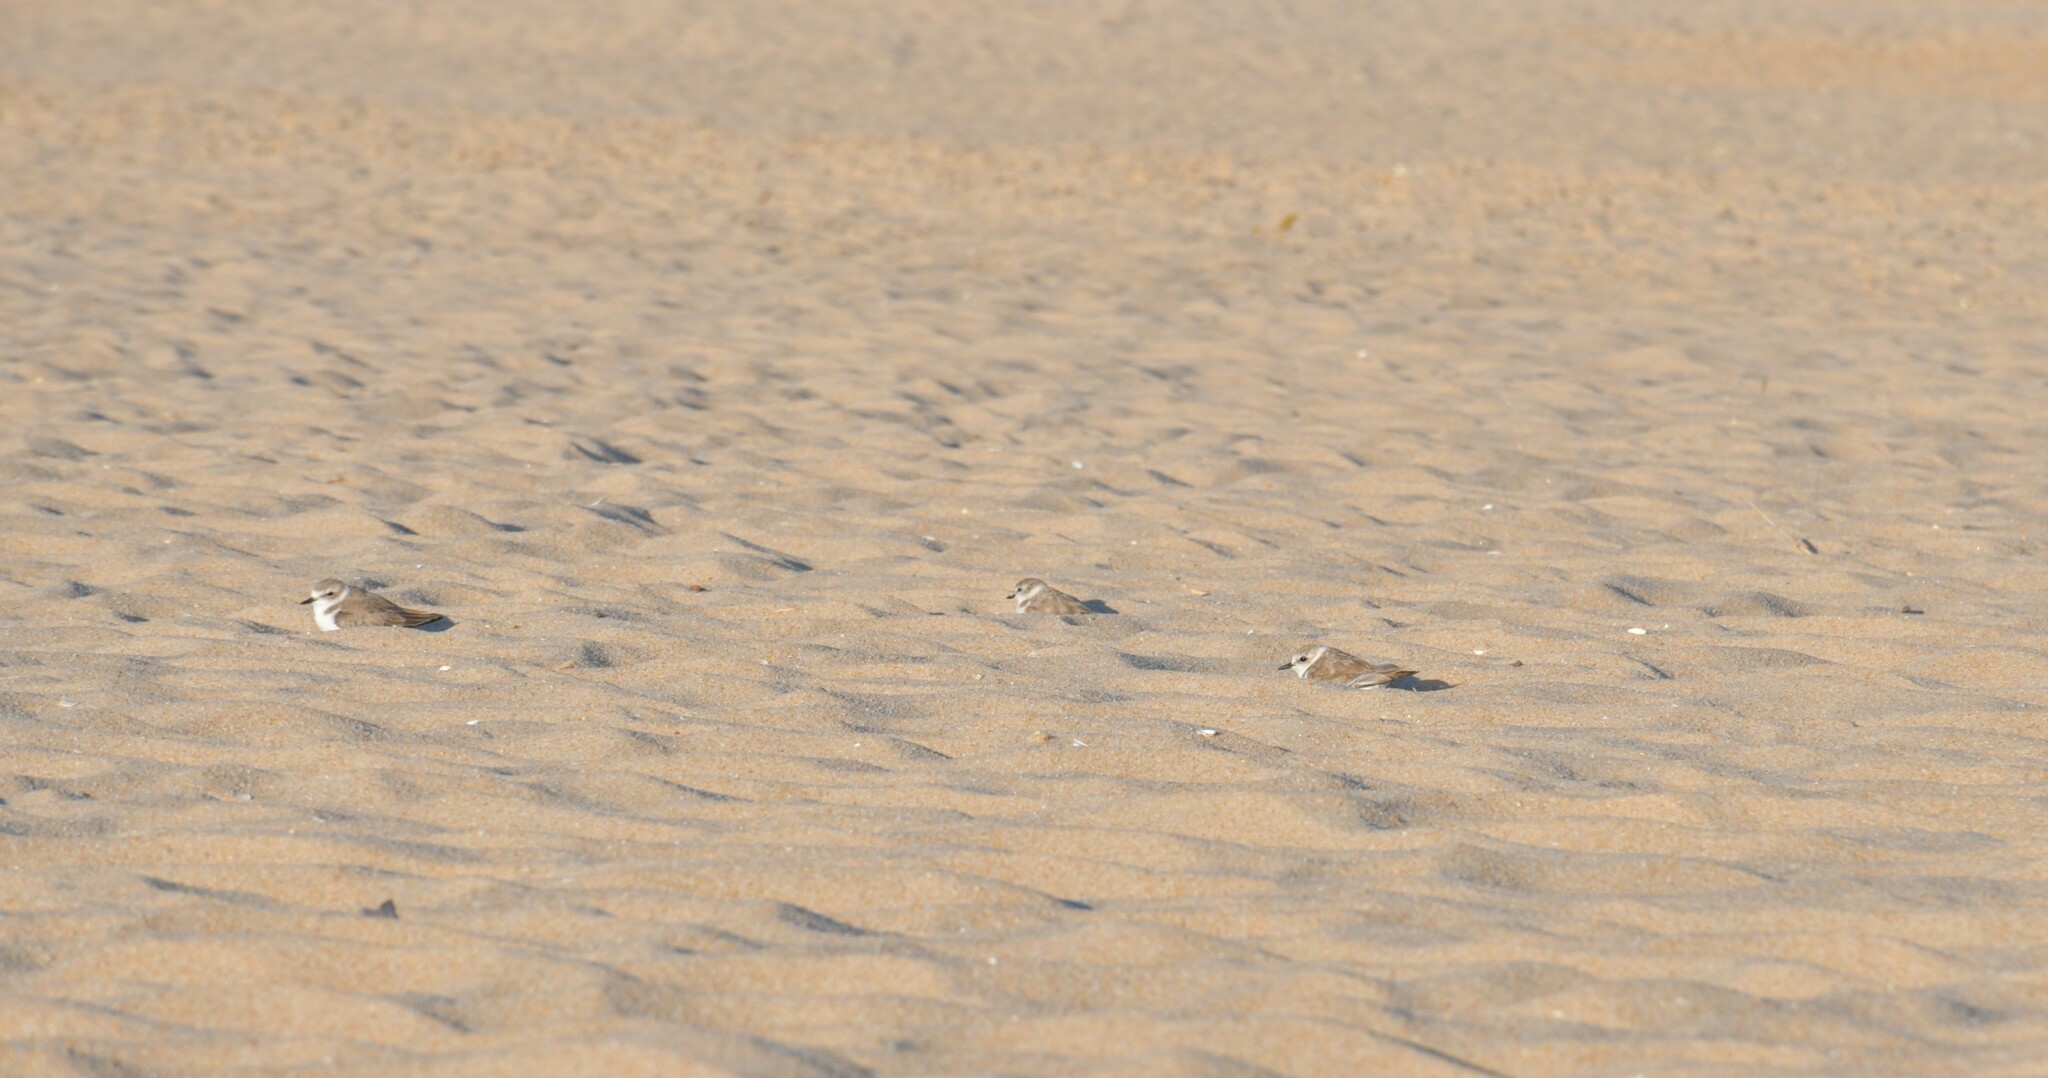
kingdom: Animalia
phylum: Chordata
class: Aves
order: Charadriiformes
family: Charadriidae
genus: Charadrius
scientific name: Charadrius alexandrinus
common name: Kentish plover
